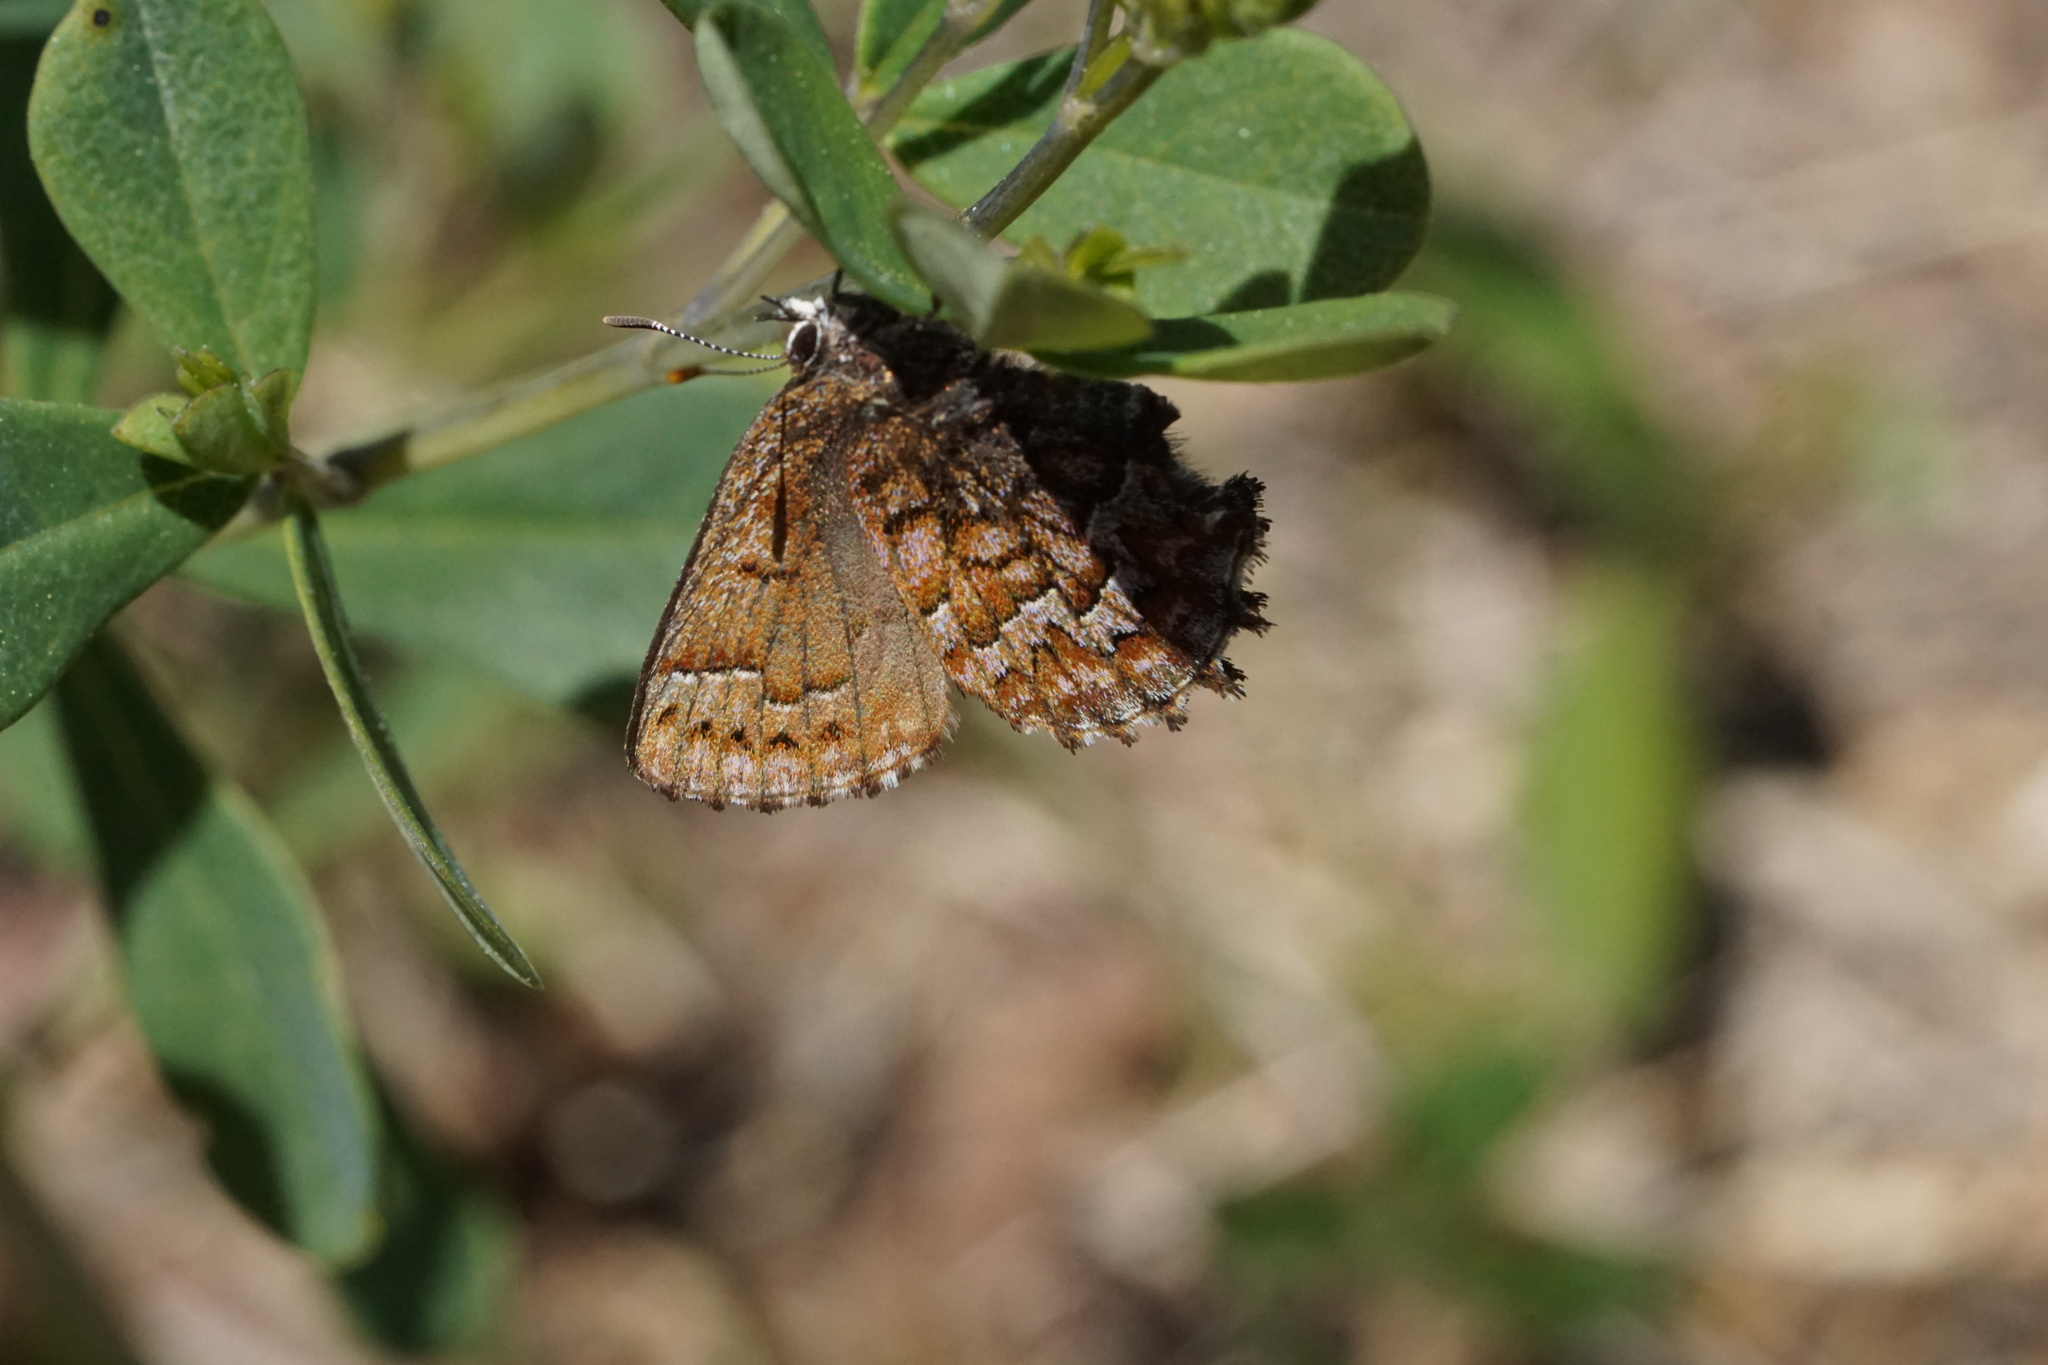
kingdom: Animalia
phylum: Arthropoda
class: Insecta
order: Lepidoptera
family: Lycaenidae
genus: Incisalia
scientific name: Incisalia niphon
